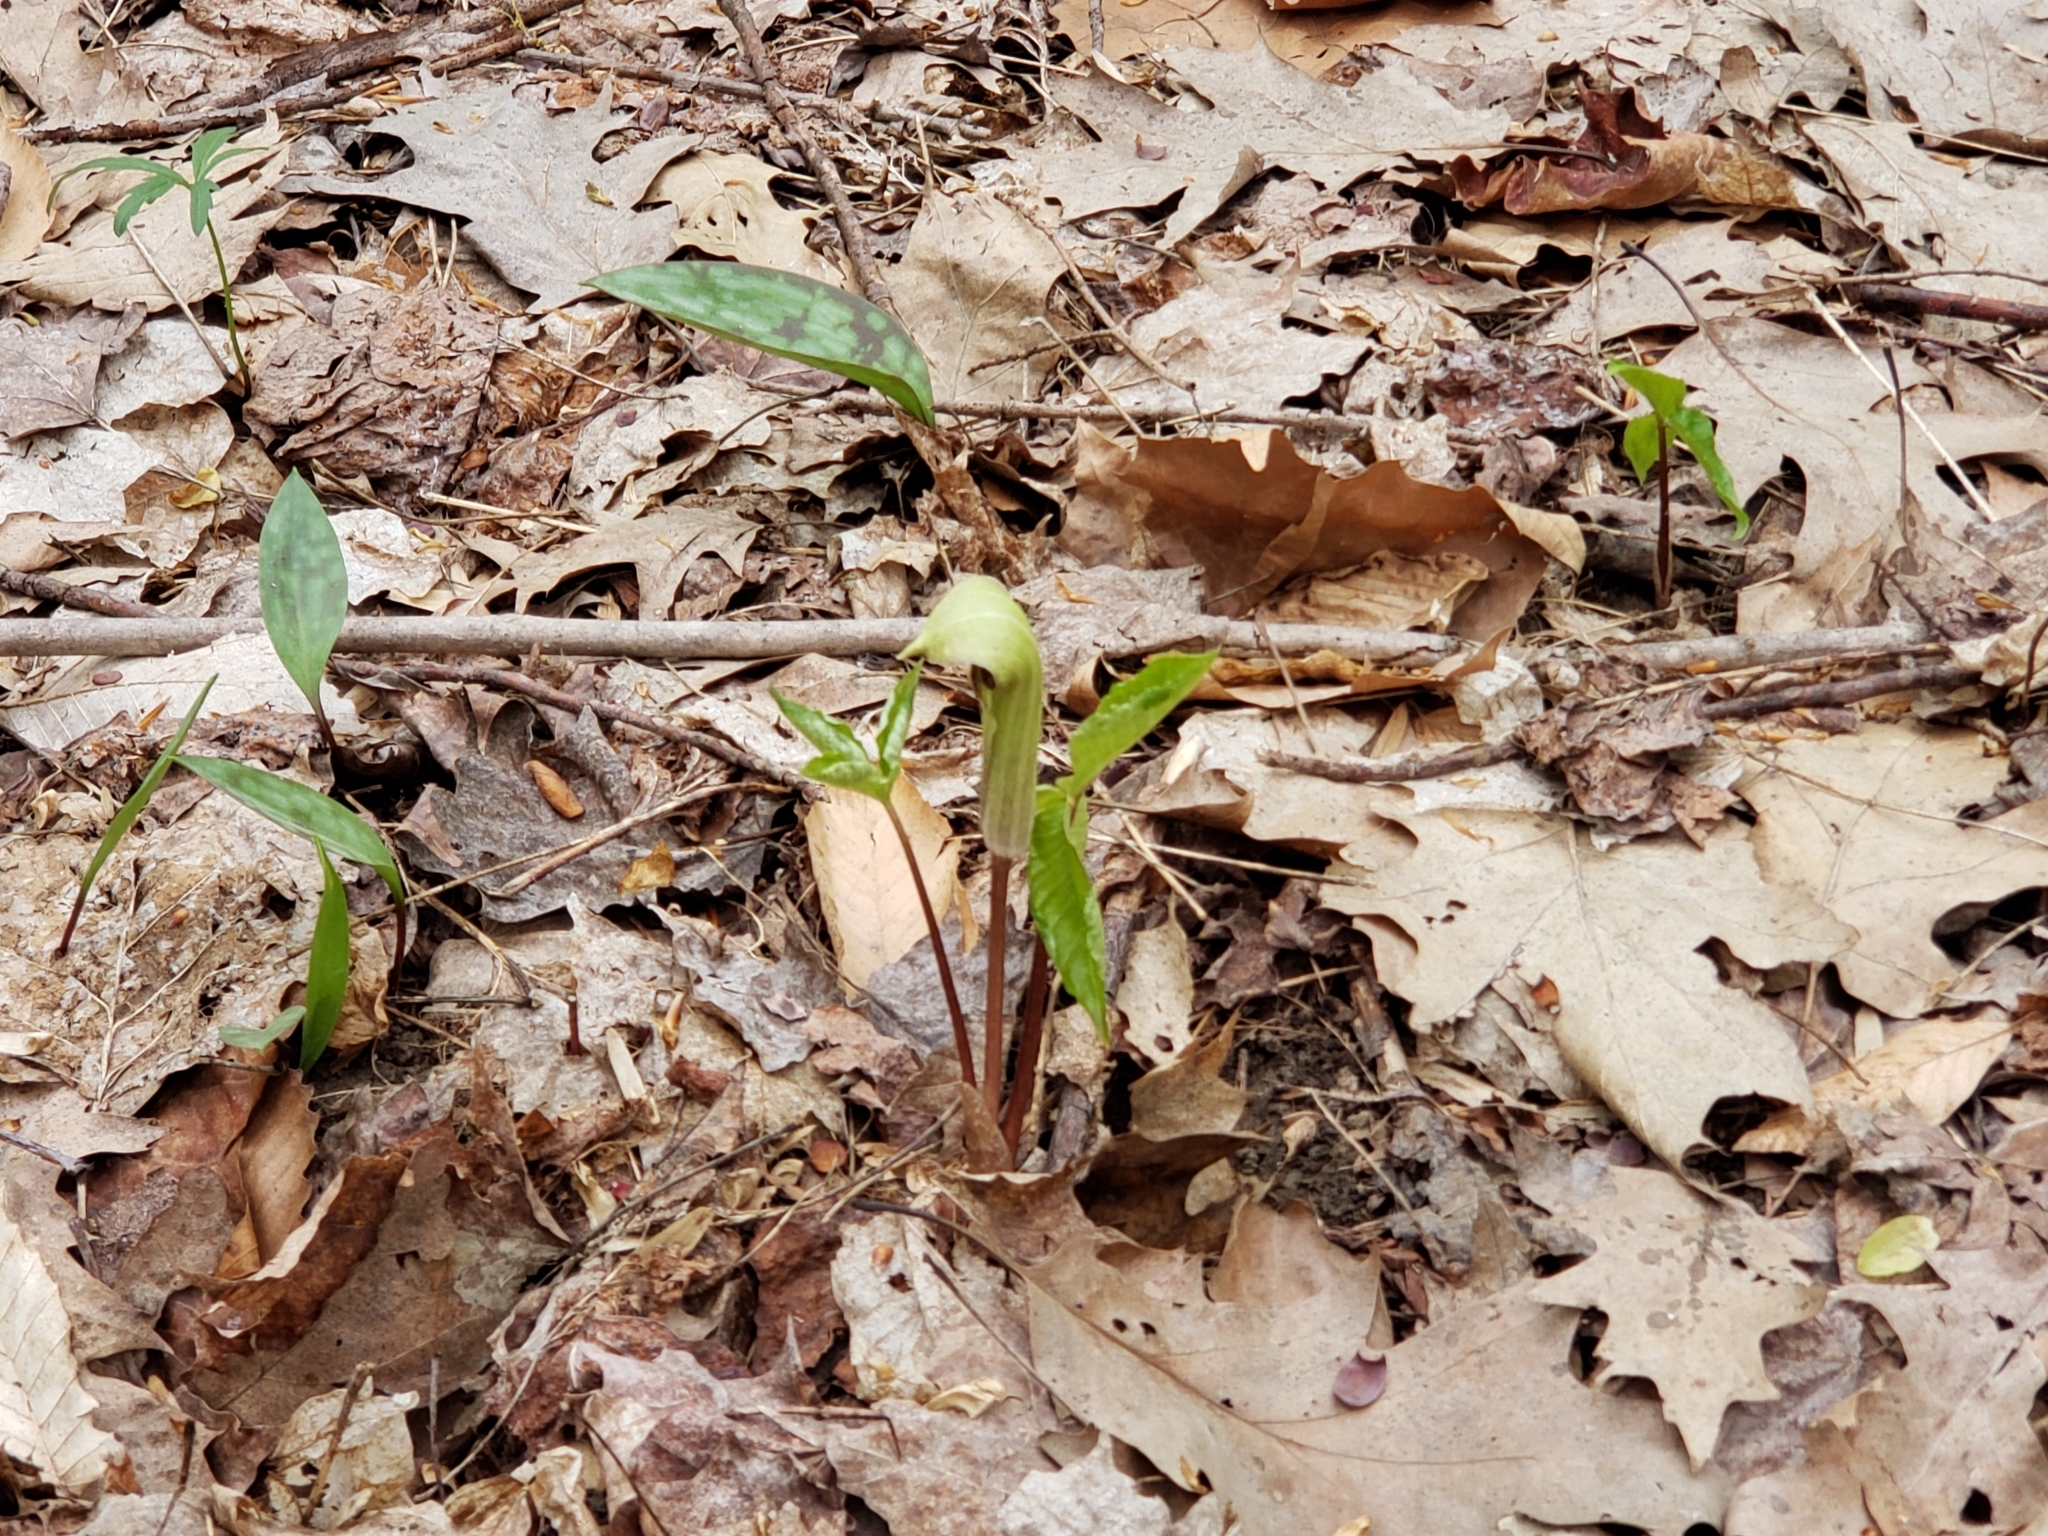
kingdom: Plantae
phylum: Tracheophyta
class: Liliopsida
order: Alismatales
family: Araceae
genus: Arisaema
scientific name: Arisaema triphyllum
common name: Jack-in-the-pulpit
